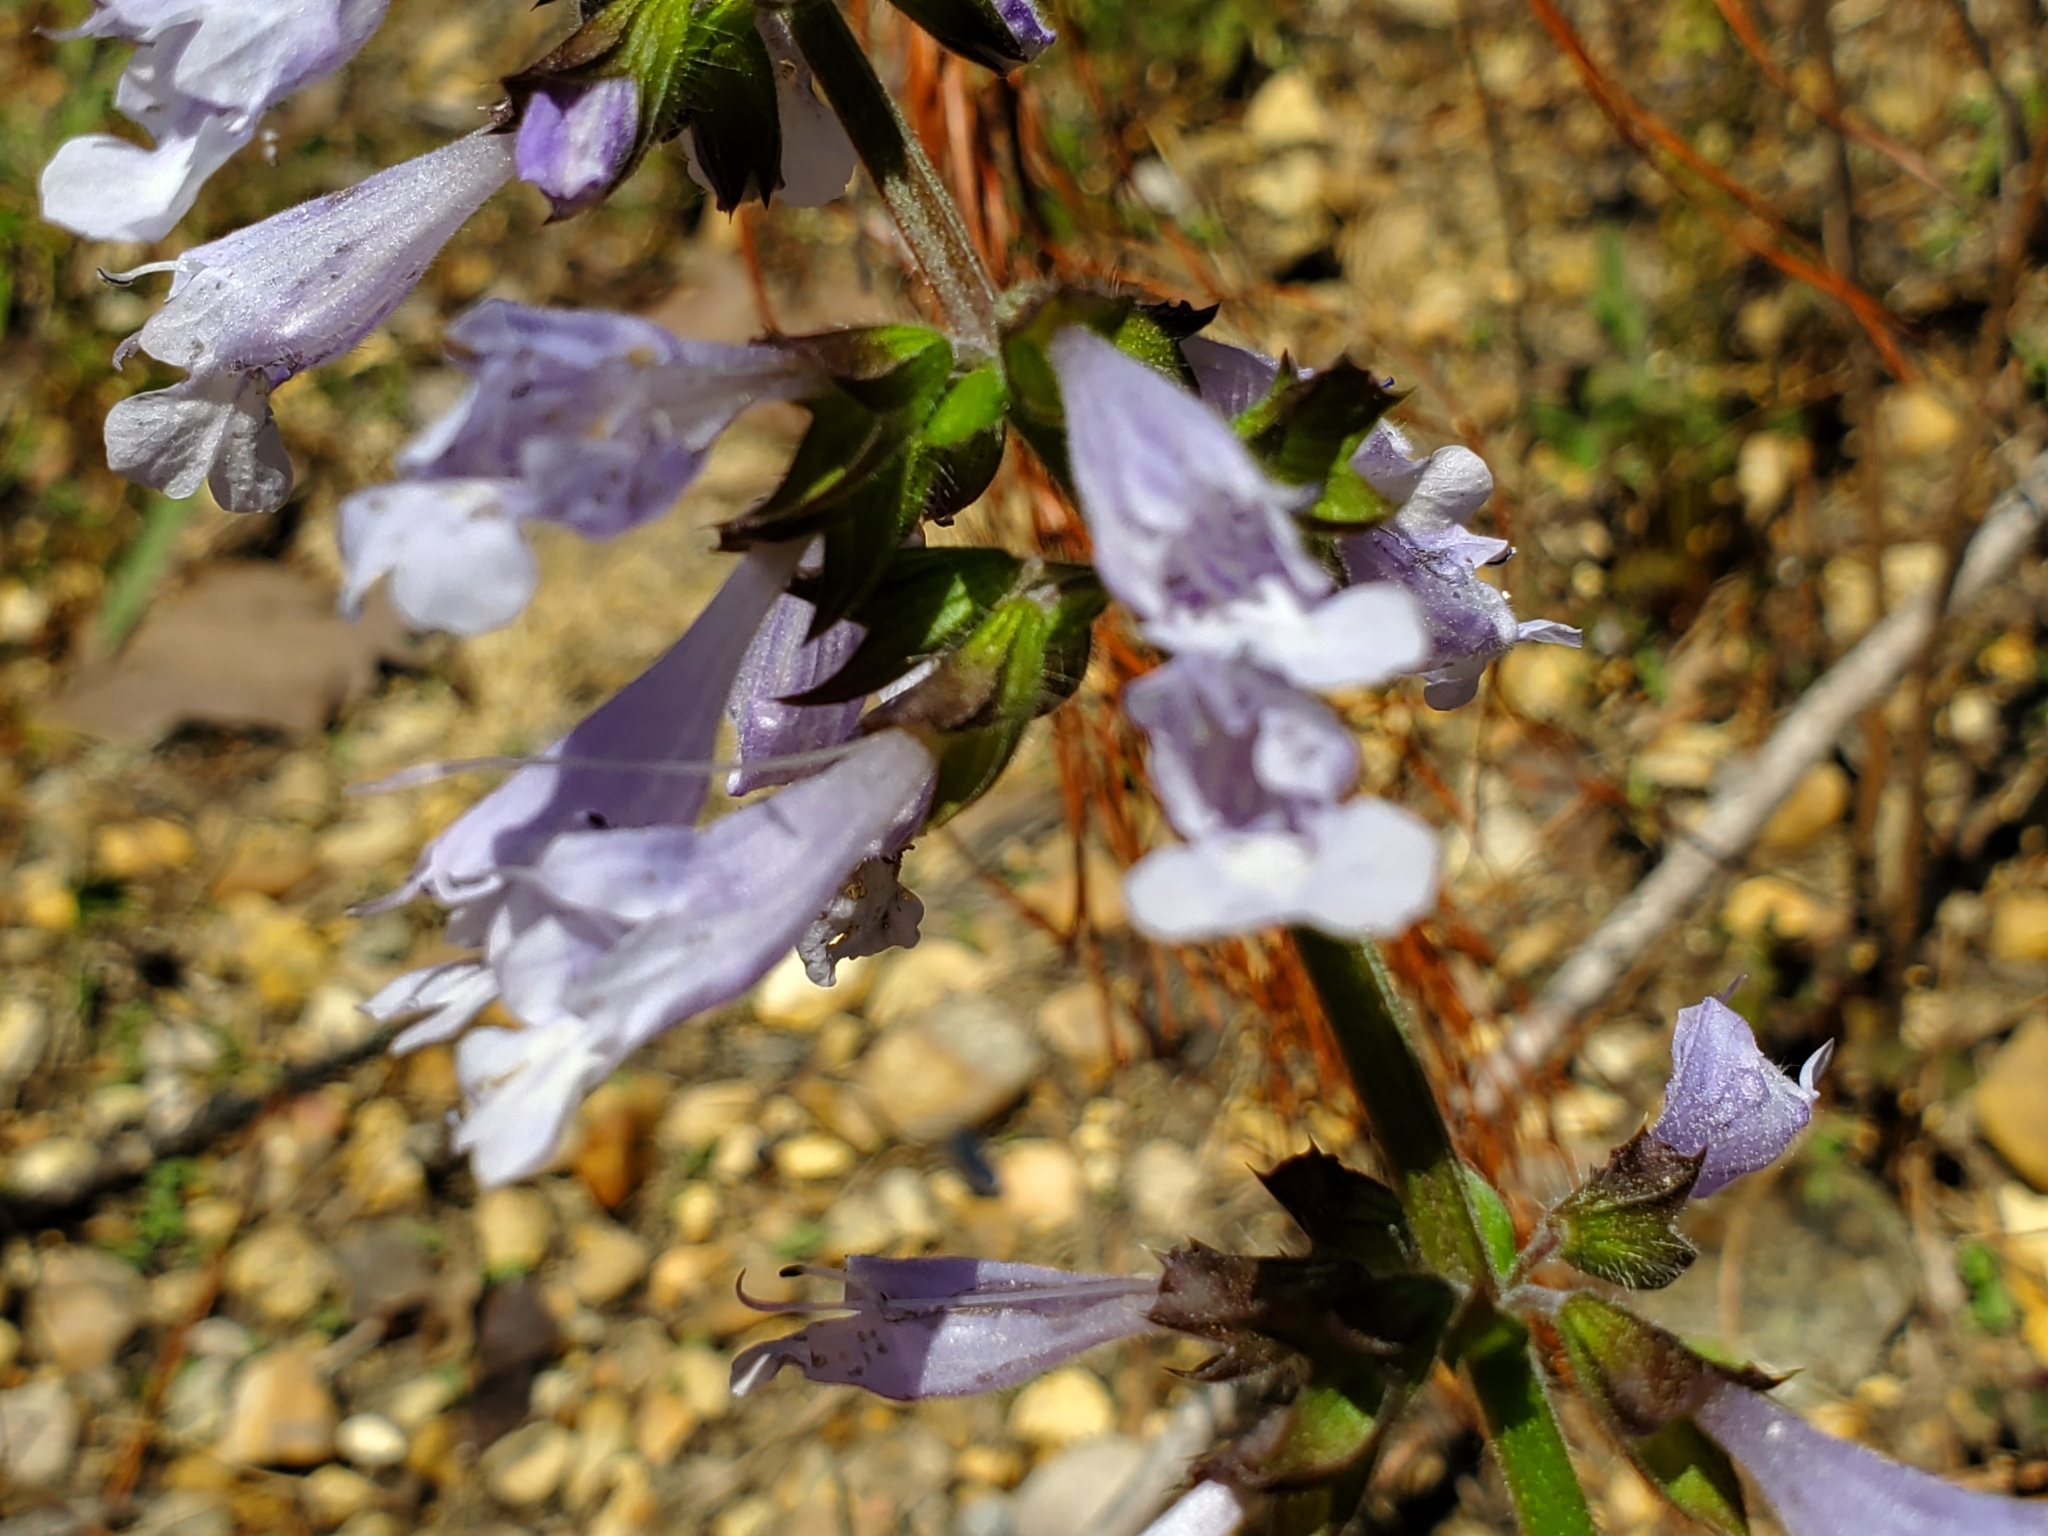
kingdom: Plantae
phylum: Tracheophyta
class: Magnoliopsida
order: Lamiales
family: Lamiaceae
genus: Salvia
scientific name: Salvia lyrata
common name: Cancerweed
